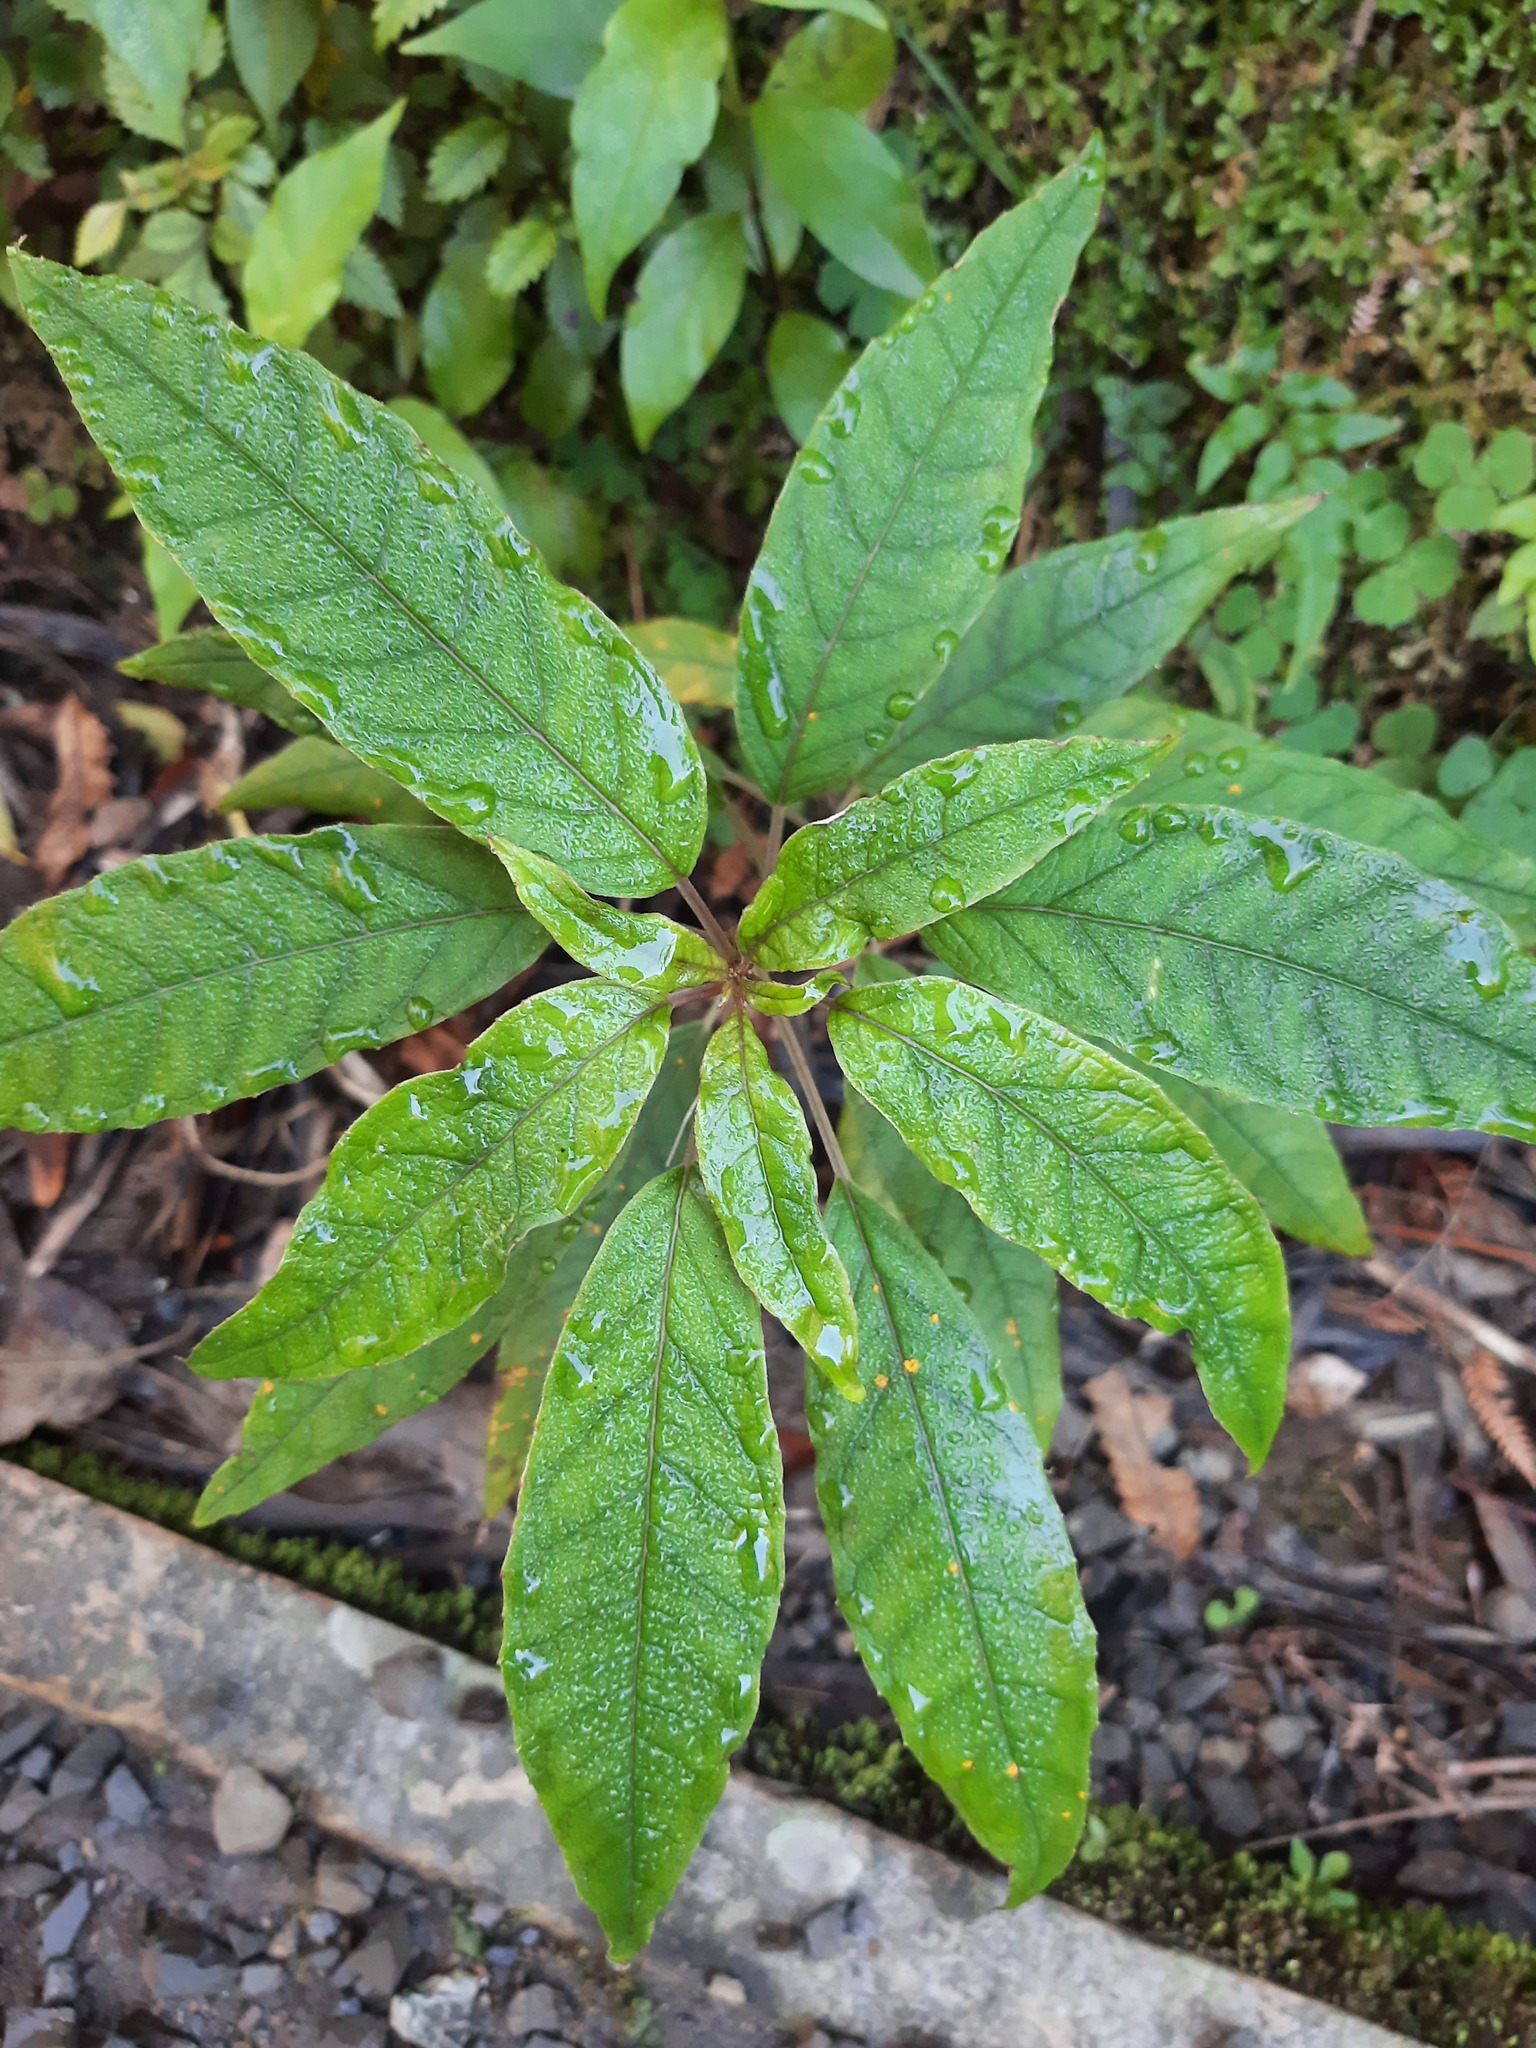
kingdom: Plantae
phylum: Tracheophyta
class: Magnoliopsida
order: Myrtales
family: Onagraceae
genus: Fuchsia
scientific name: Fuchsia excorticata
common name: Tree fuchsia
